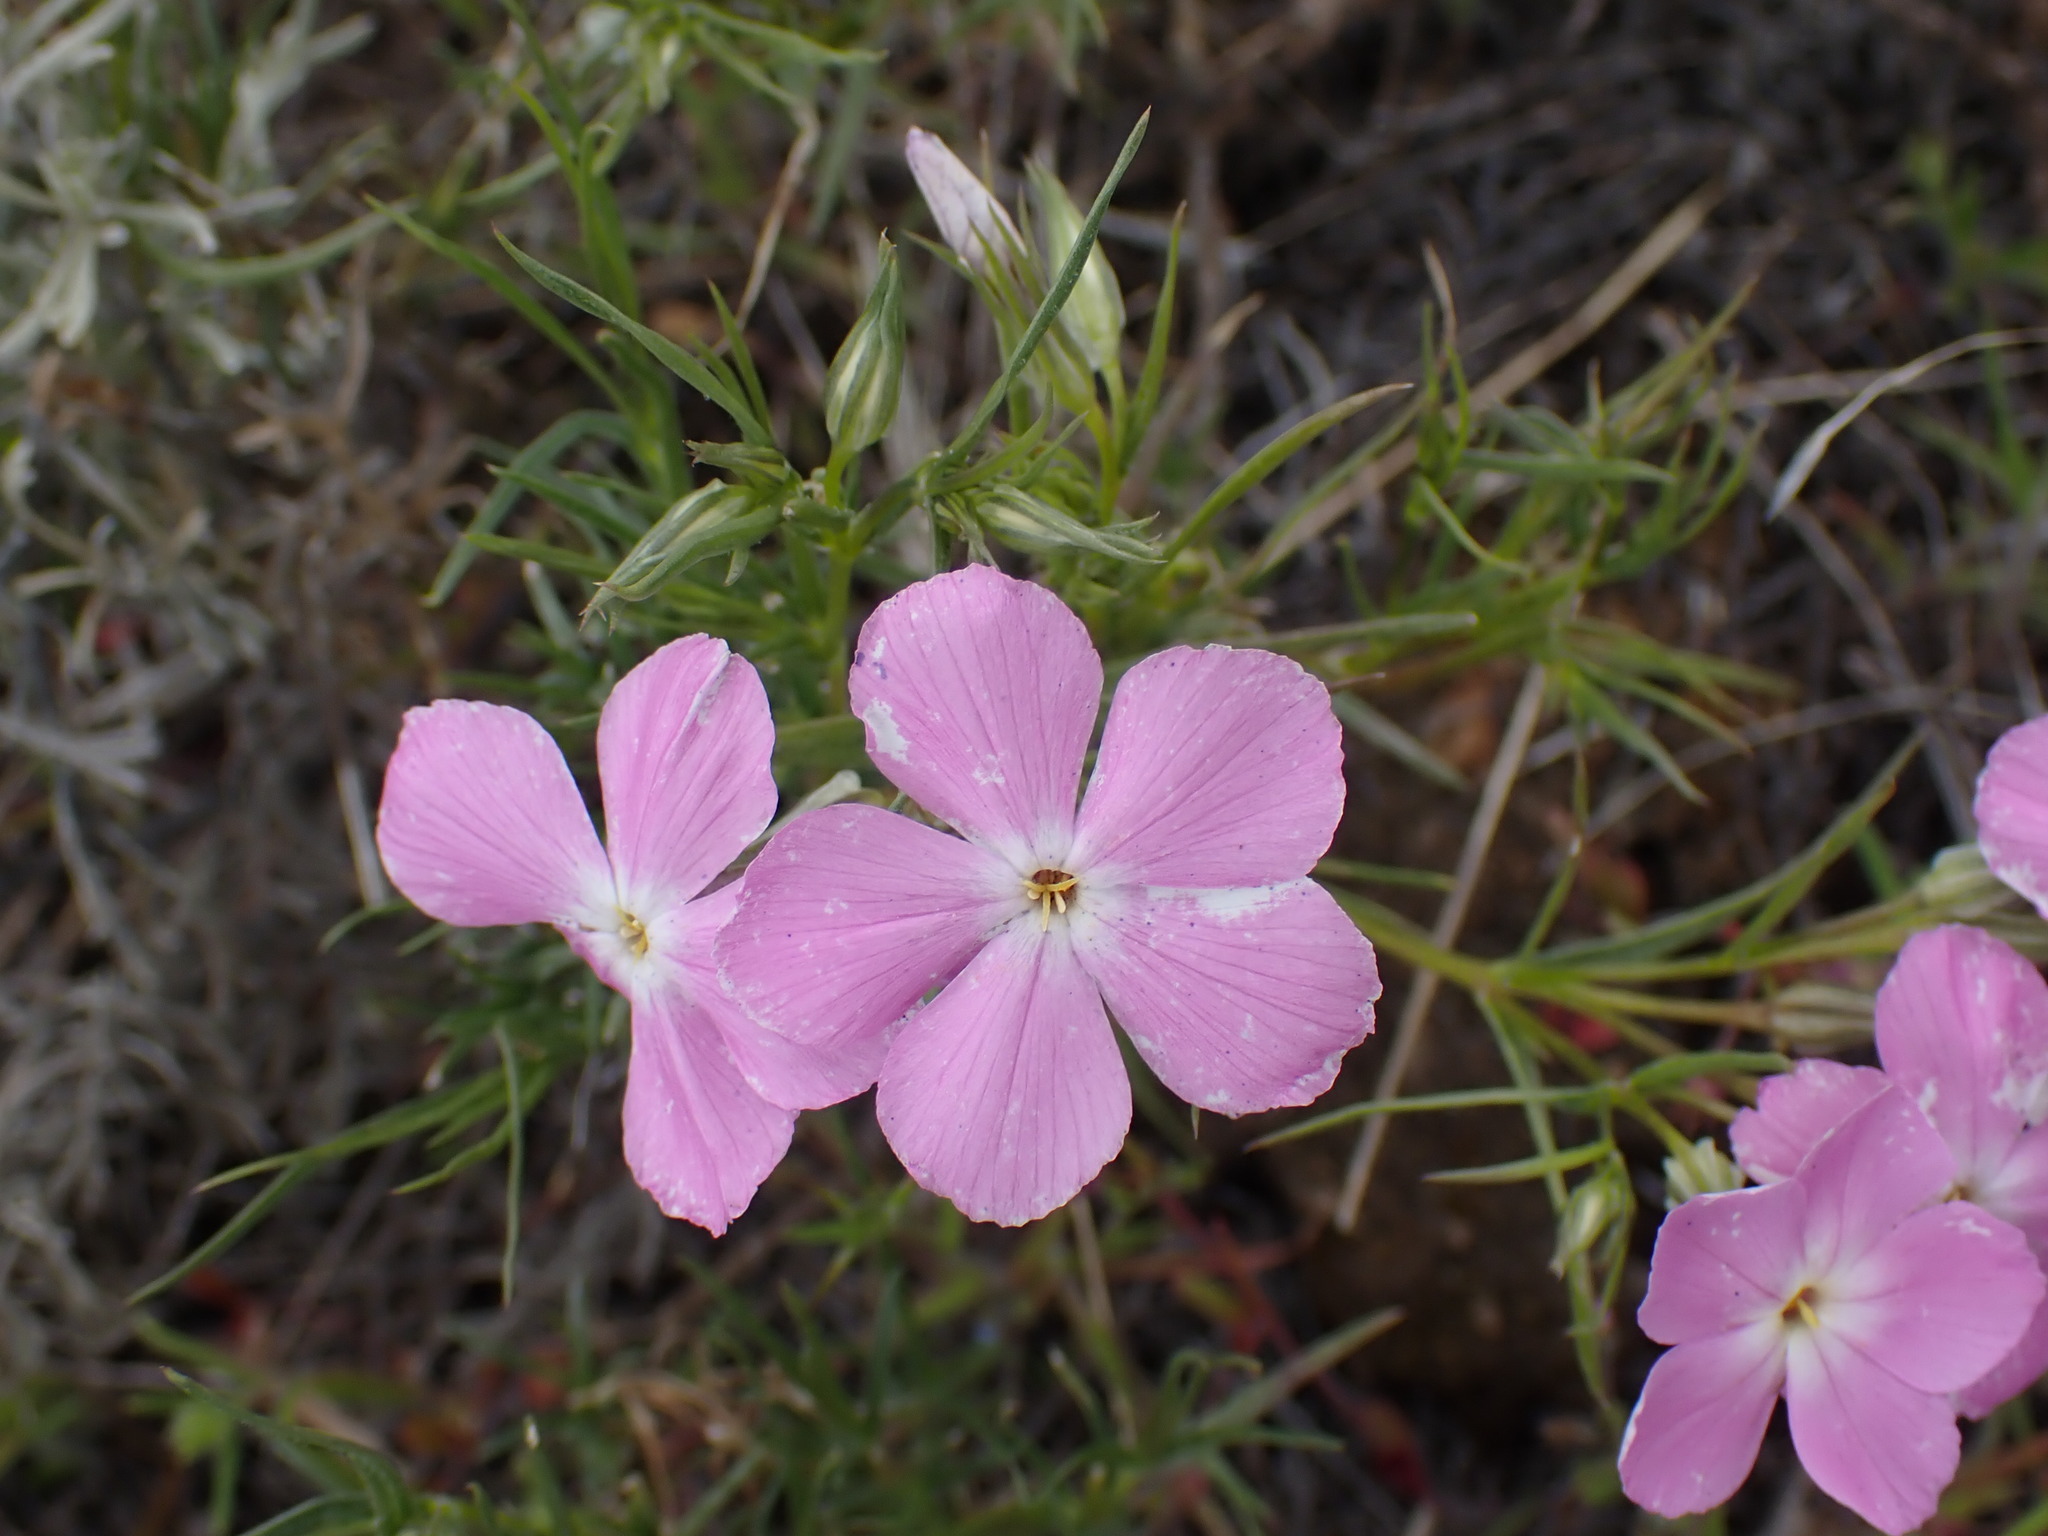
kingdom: Plantae
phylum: Tracheophyta
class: Magnoliopsida
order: Ericales
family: Polemoniaceae
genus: Phlox
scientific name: Phlox longifolia
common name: Longleaf phlox
